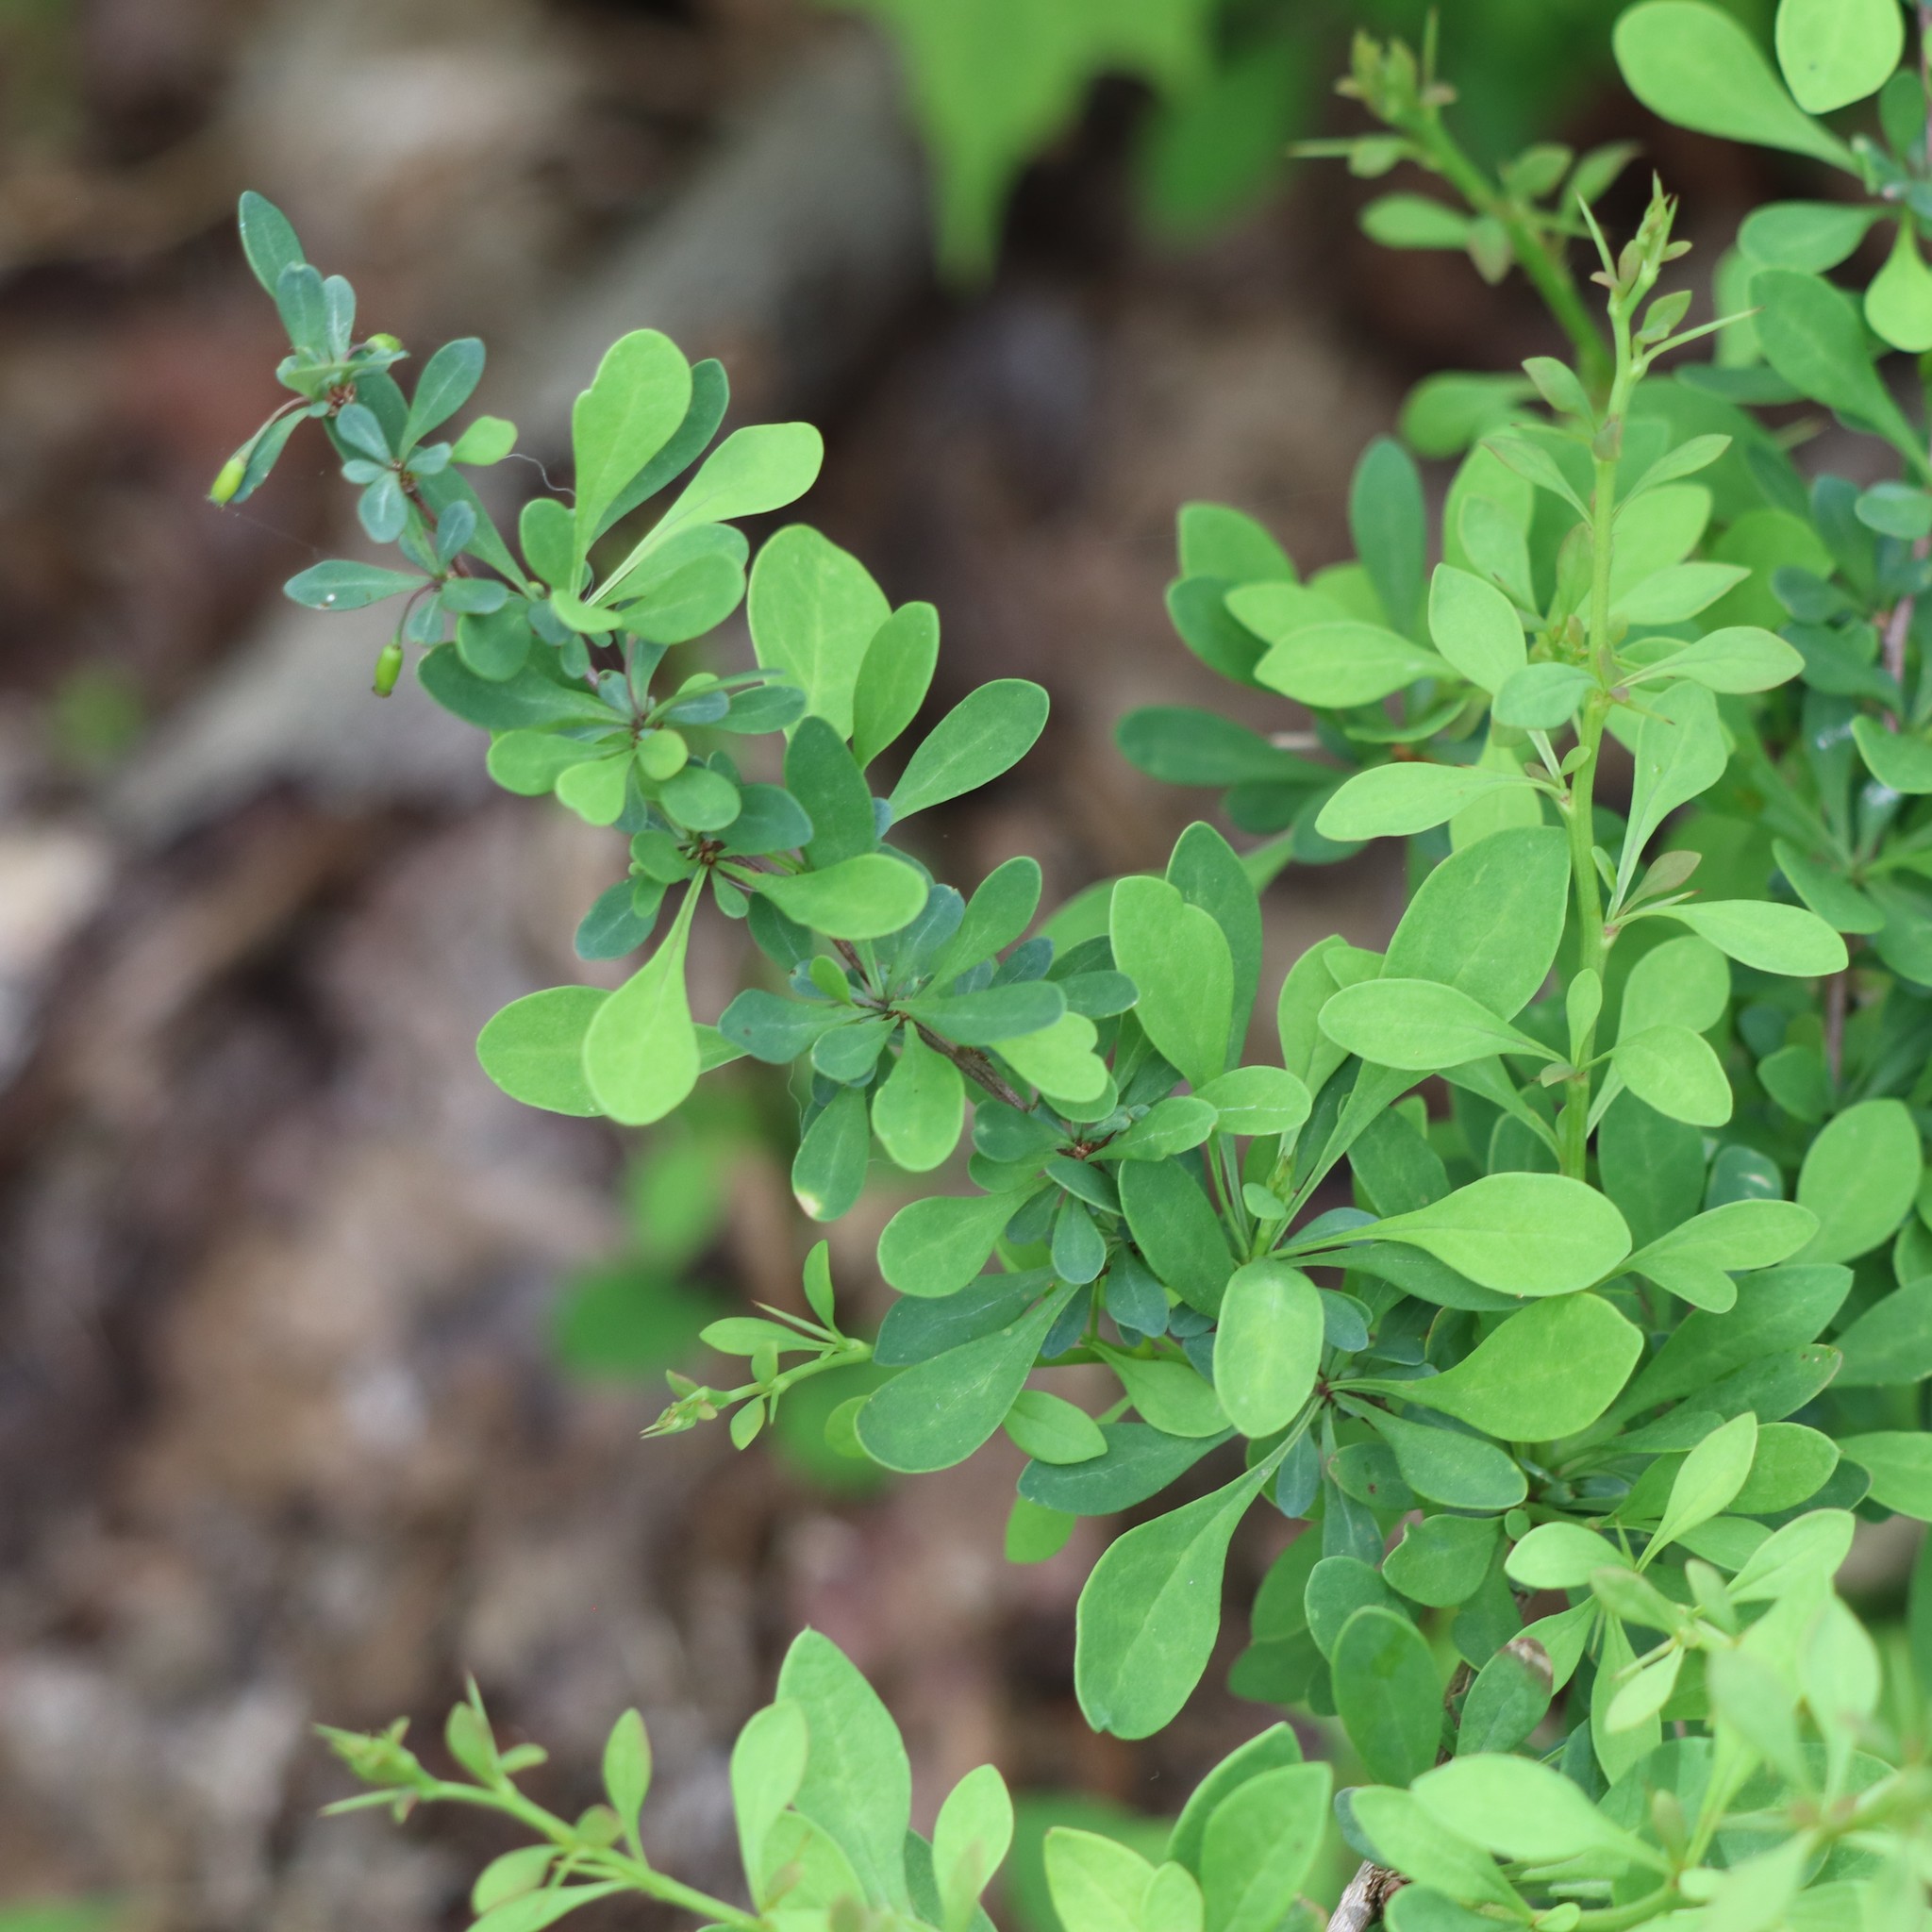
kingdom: Plantae
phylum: Tracheophyta
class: Magnoliopsida
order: Ranunculales
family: Berberidaceae
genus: Berberis
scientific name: Berberis thunbergii
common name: Japanese barberry
